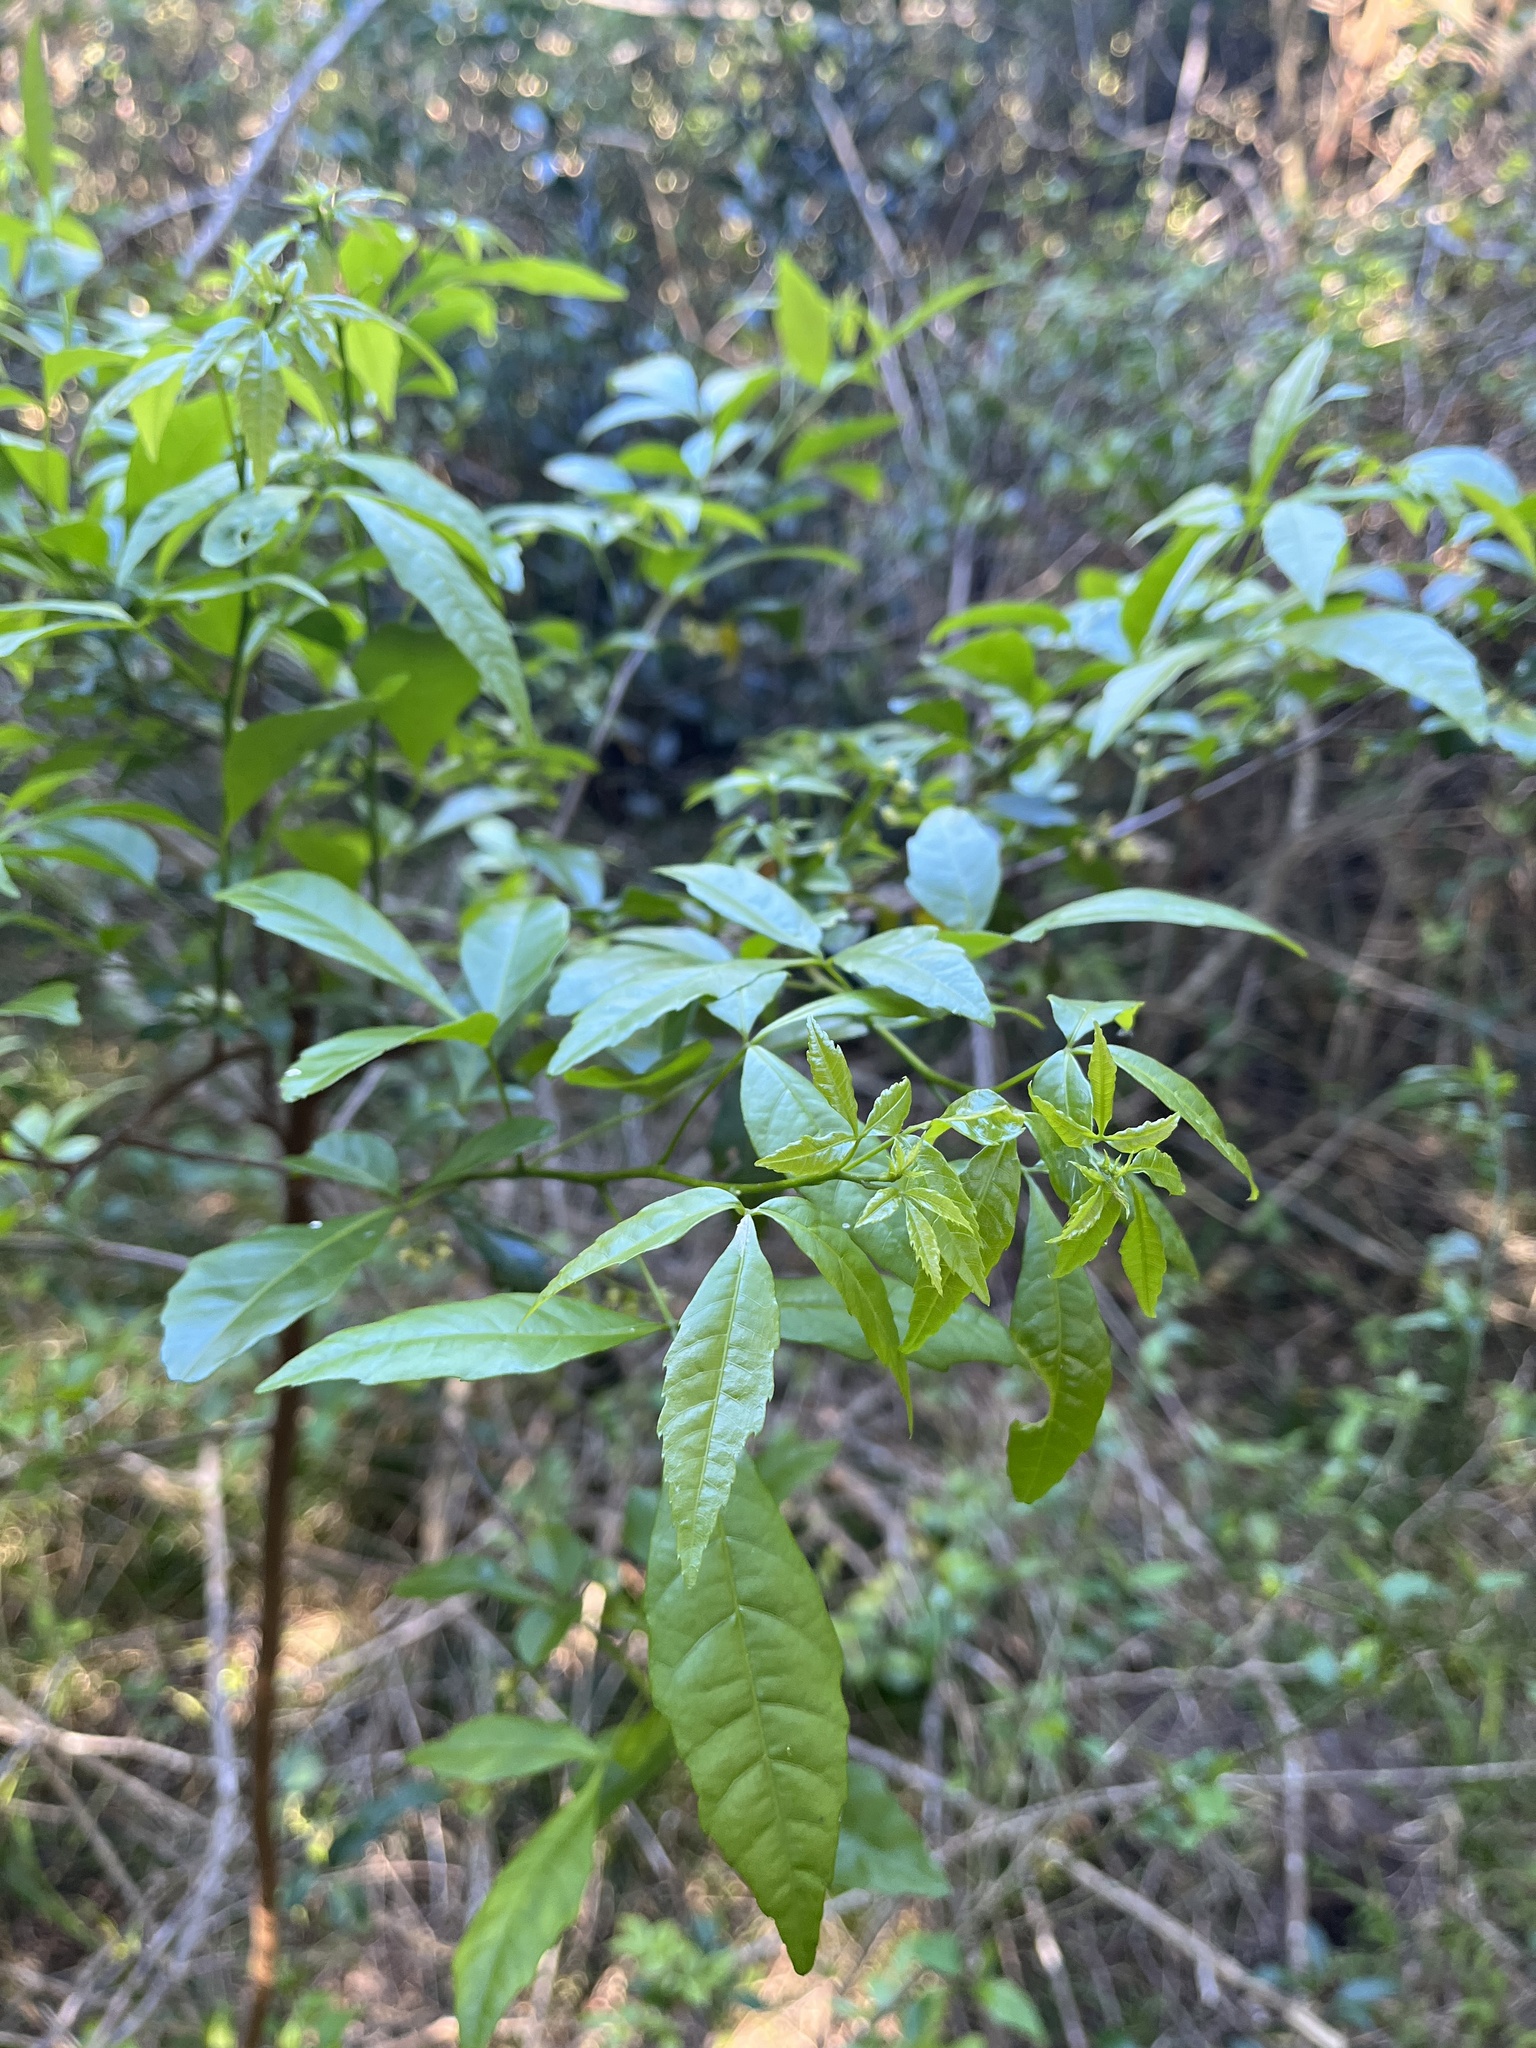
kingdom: Plantae
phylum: Tracheophyta
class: Magnoliopsida
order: Sapindales
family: Sapindaceae
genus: Allophylus
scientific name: Allophylus edulis
